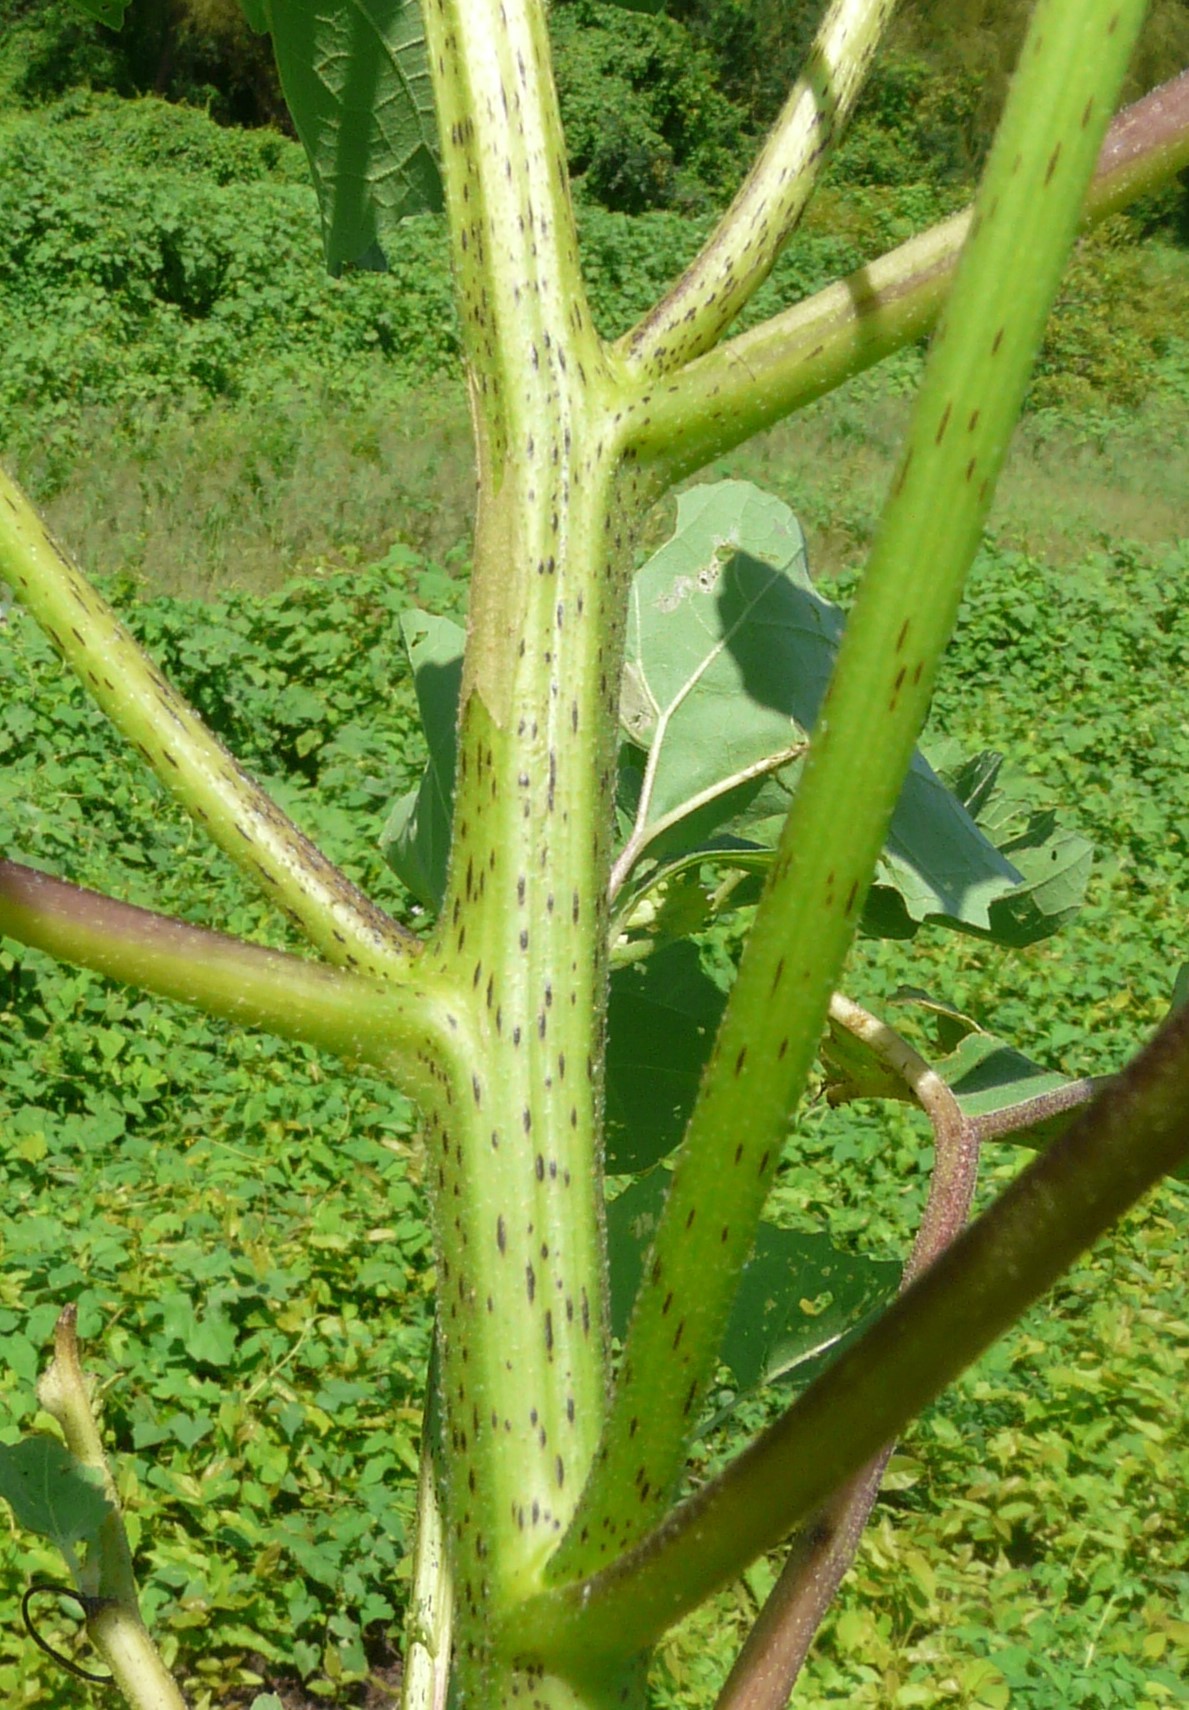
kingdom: Plantae
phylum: Tracheophyta
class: Magnoliopsida
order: Asterales
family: Asteraceae
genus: Xanthium
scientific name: Xanthium strumarium
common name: Rough cocklebur
